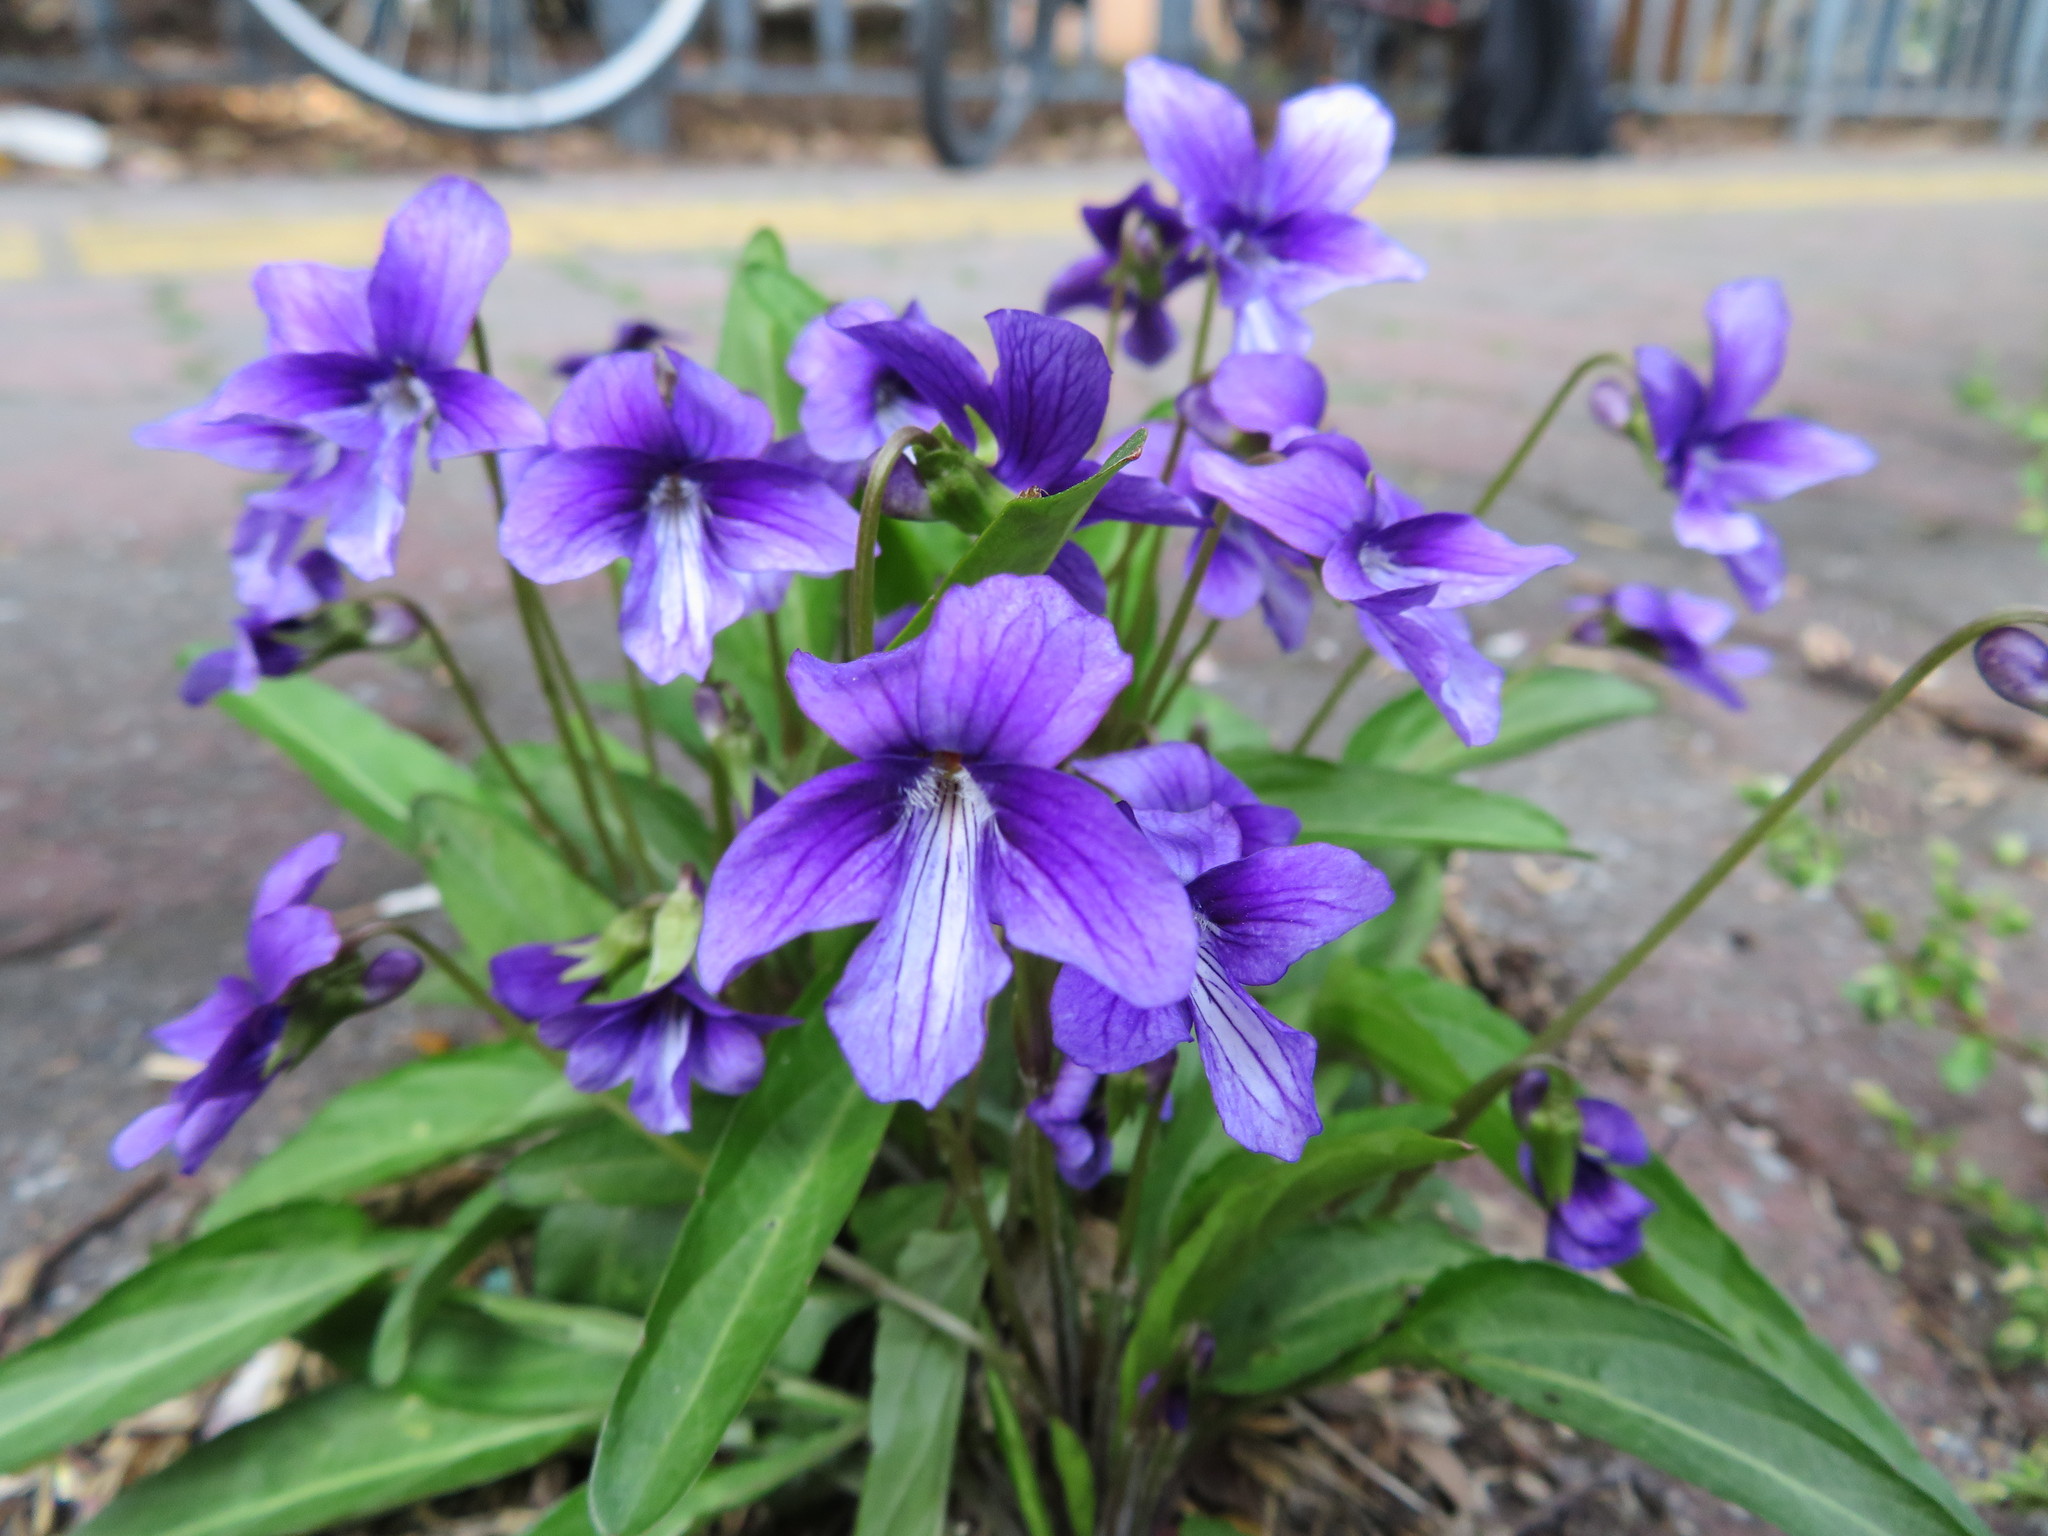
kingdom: Plantae
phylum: Tracheophyta
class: Magnoliopsida
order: Malpighiales
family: Violaceae
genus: Viola
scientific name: Viola mandshurica
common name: Manchuria violet
